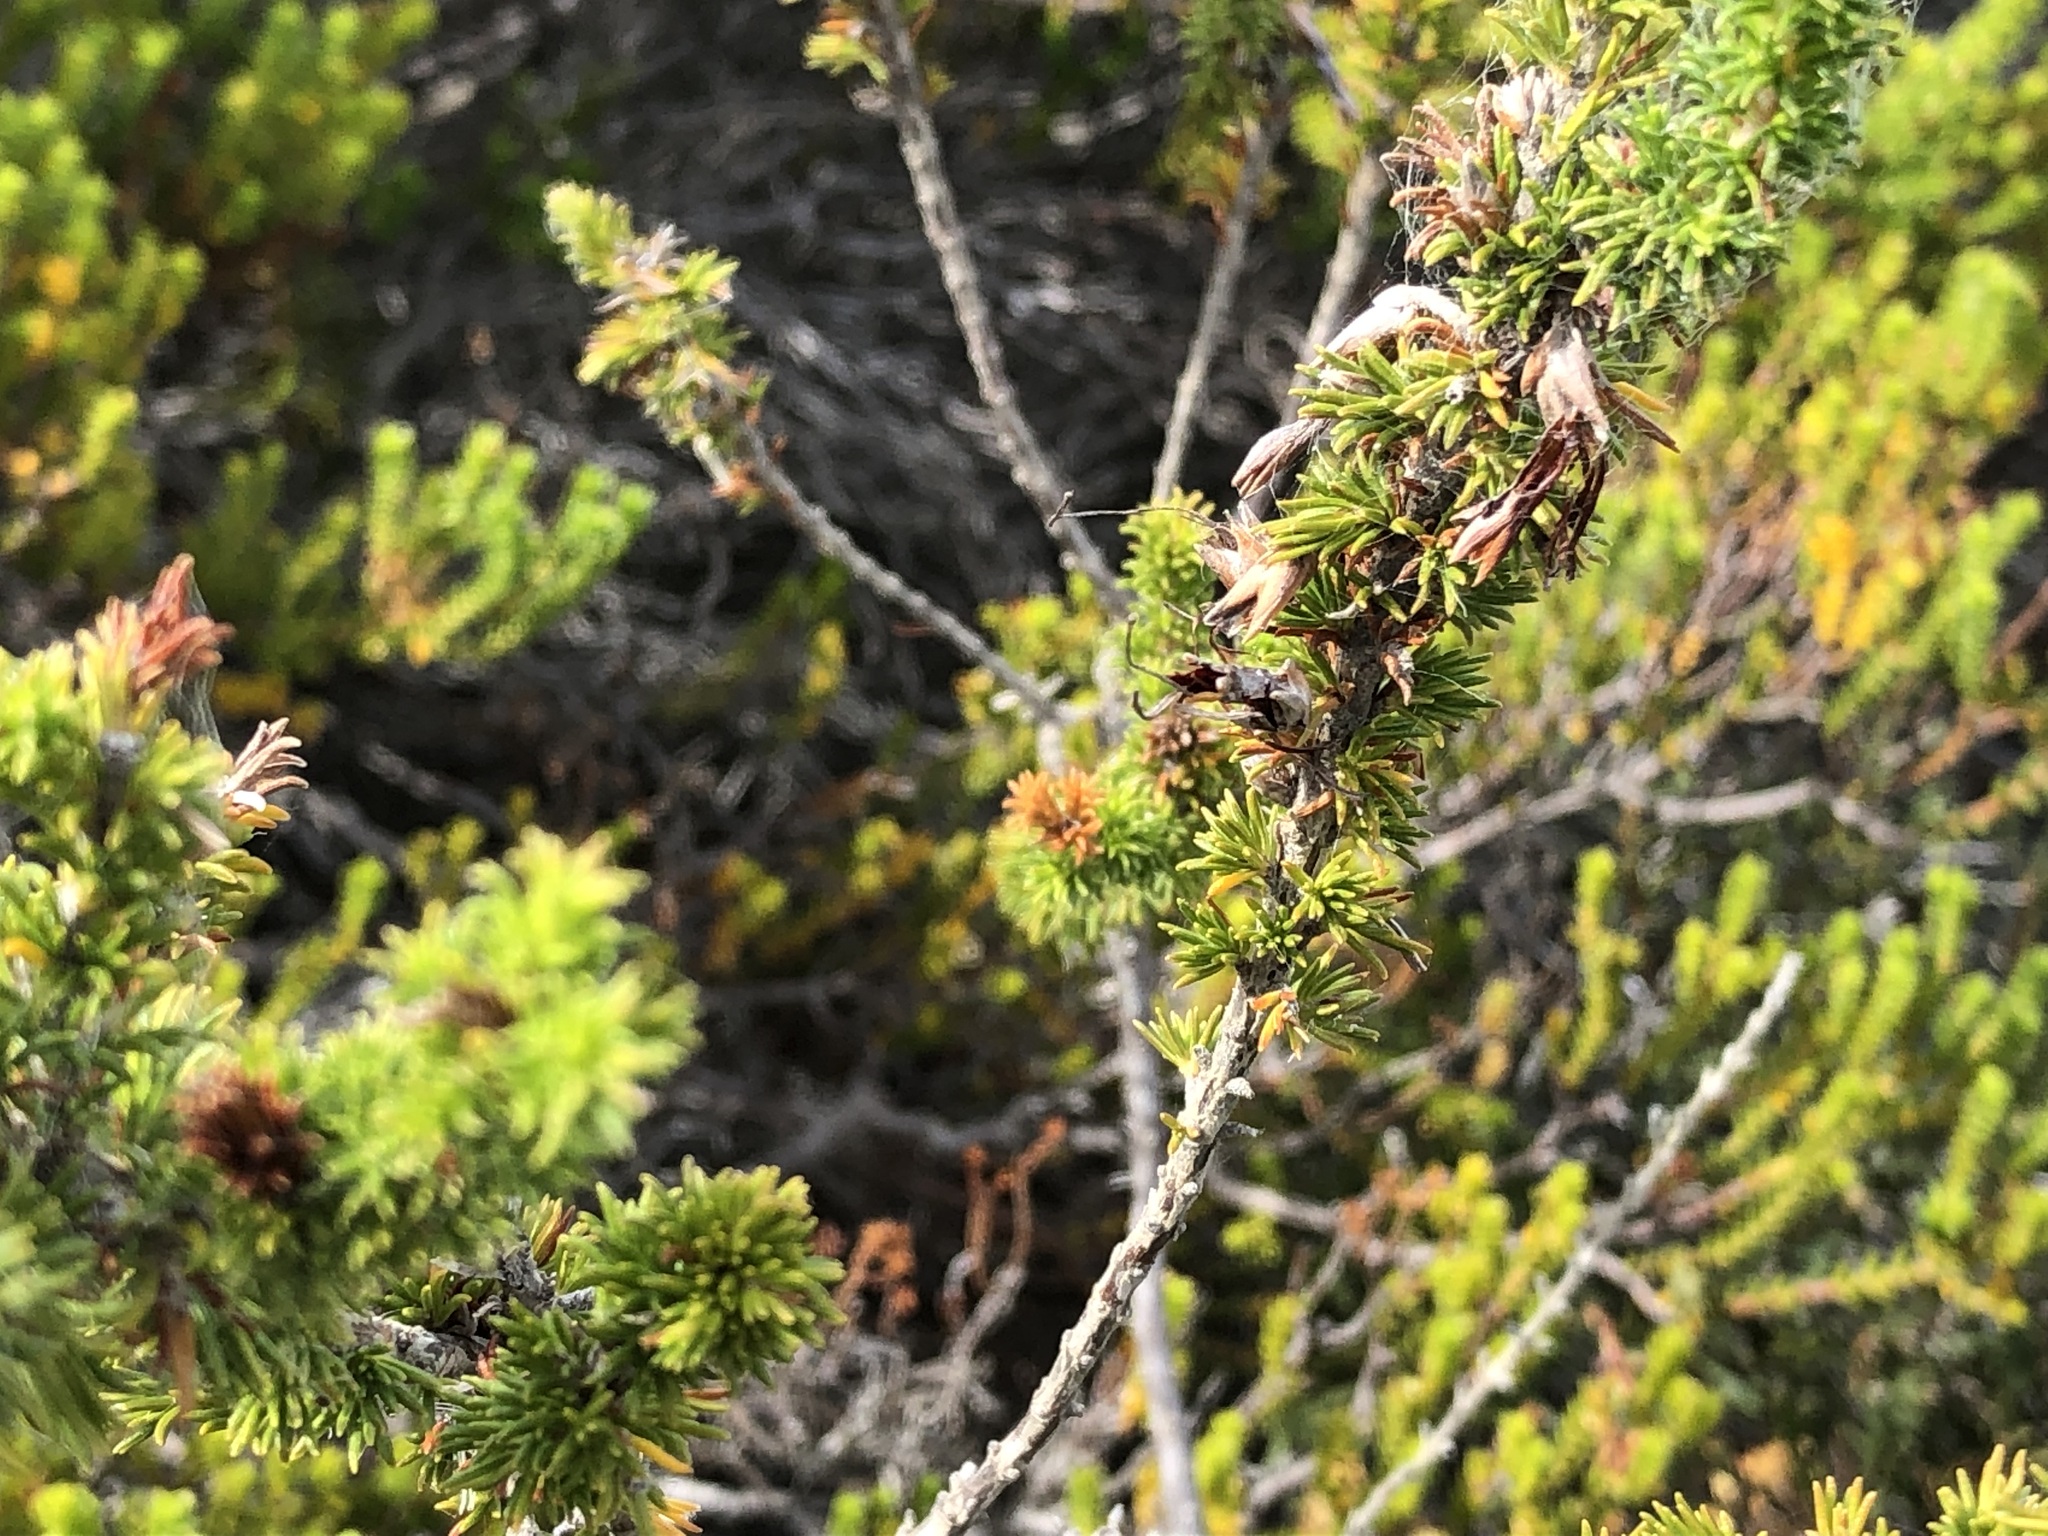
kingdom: Plantae
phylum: Tracheophyta
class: Magnoliopsida
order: Ericales
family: Ericaceae
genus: Erica
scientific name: Erica coccinea
